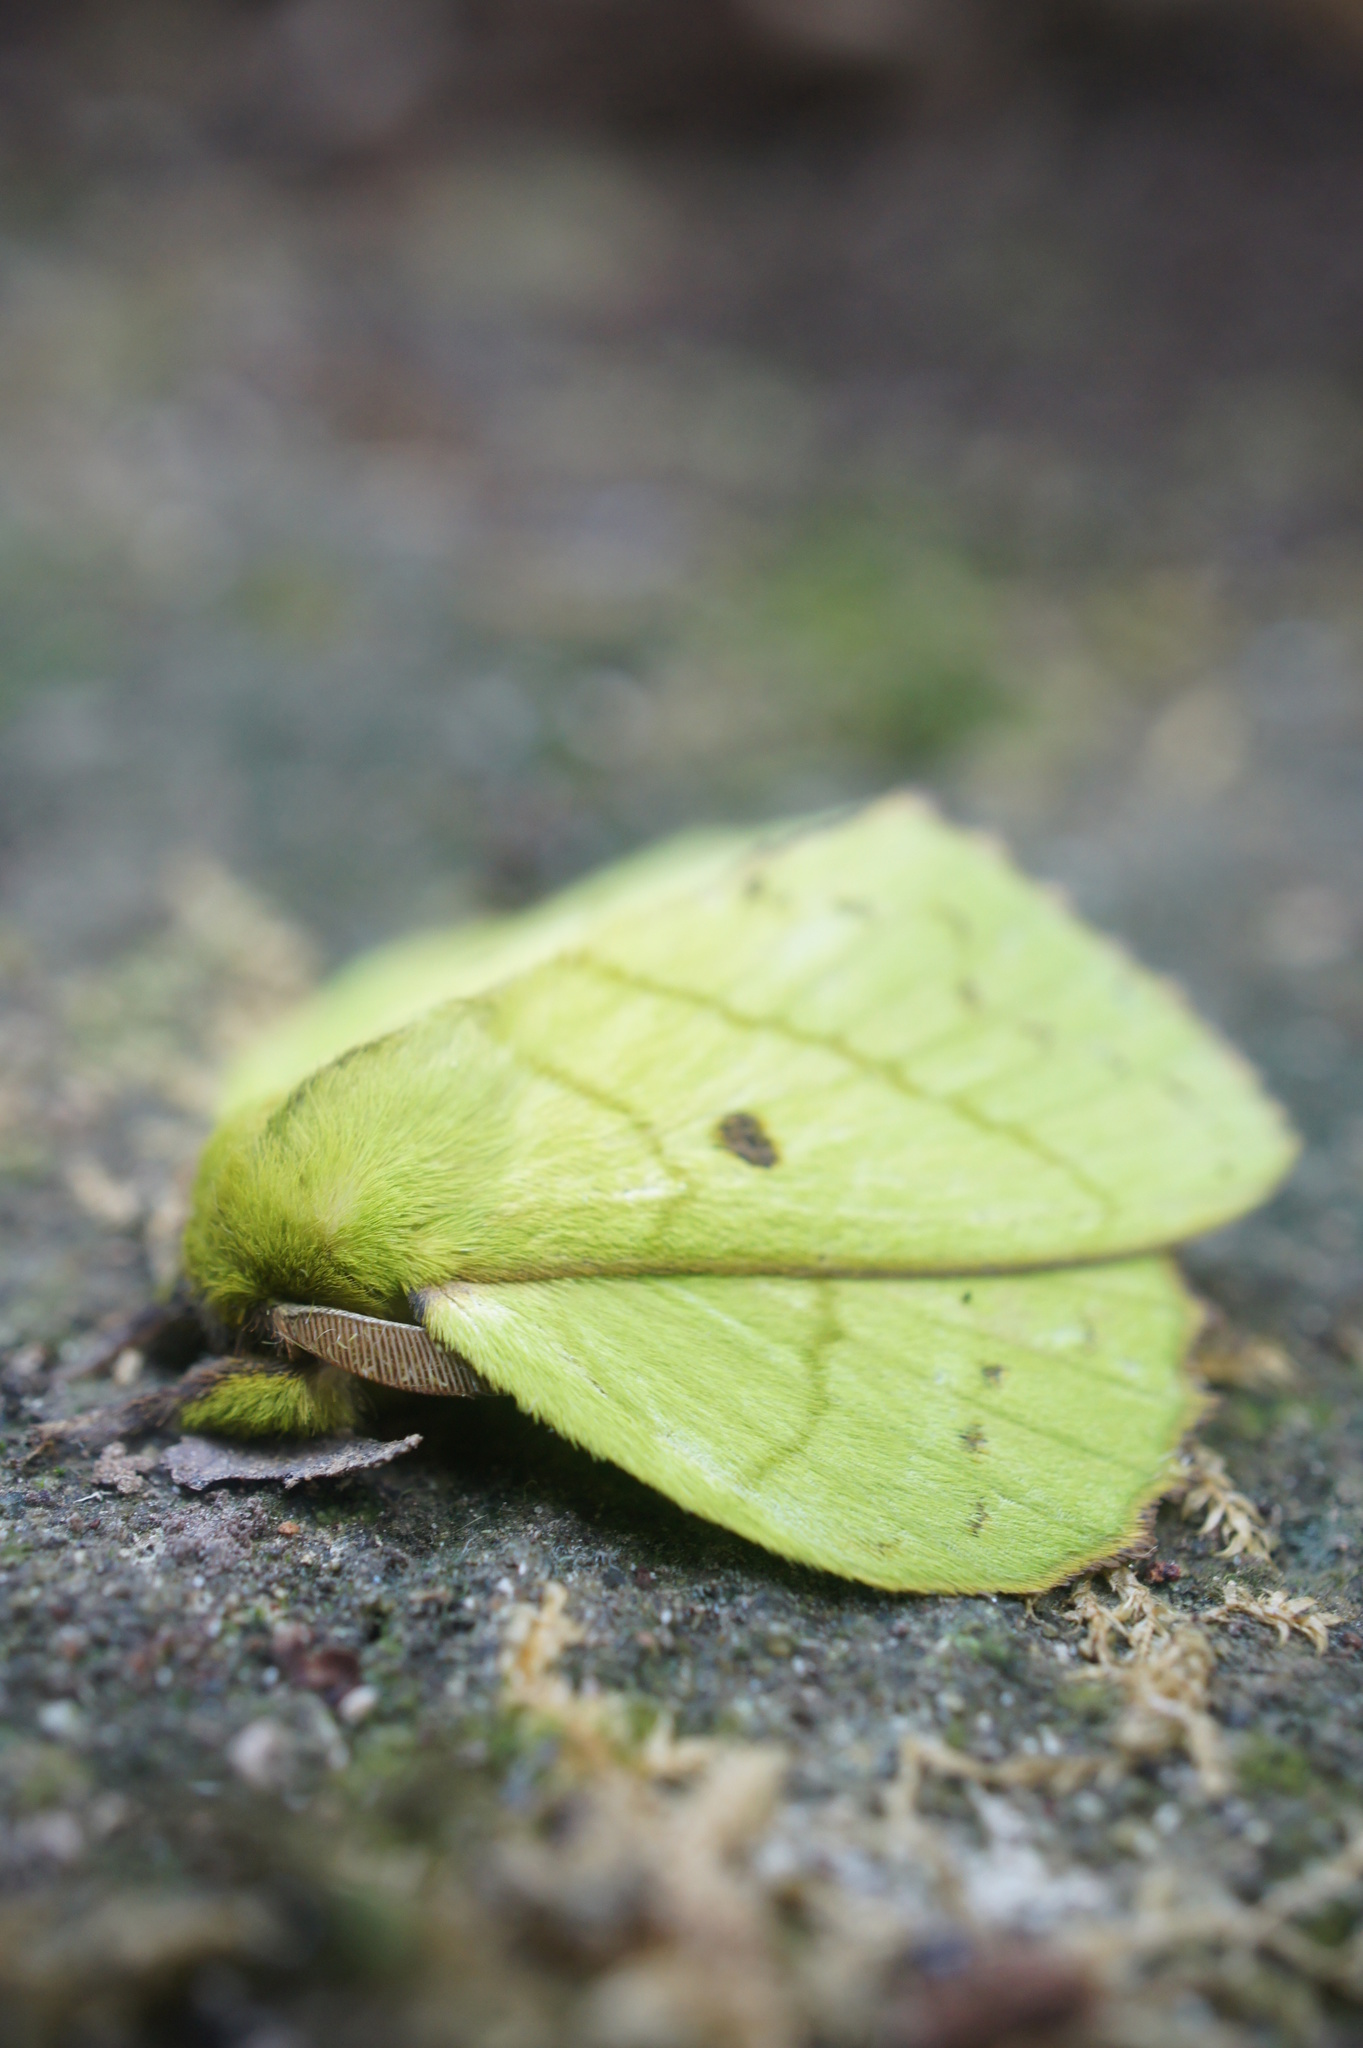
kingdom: Animalia
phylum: Arthropoda
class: Insecta
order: Lepidoptera
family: Lasiocampidae
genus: Trabala
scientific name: Trabala krishna
